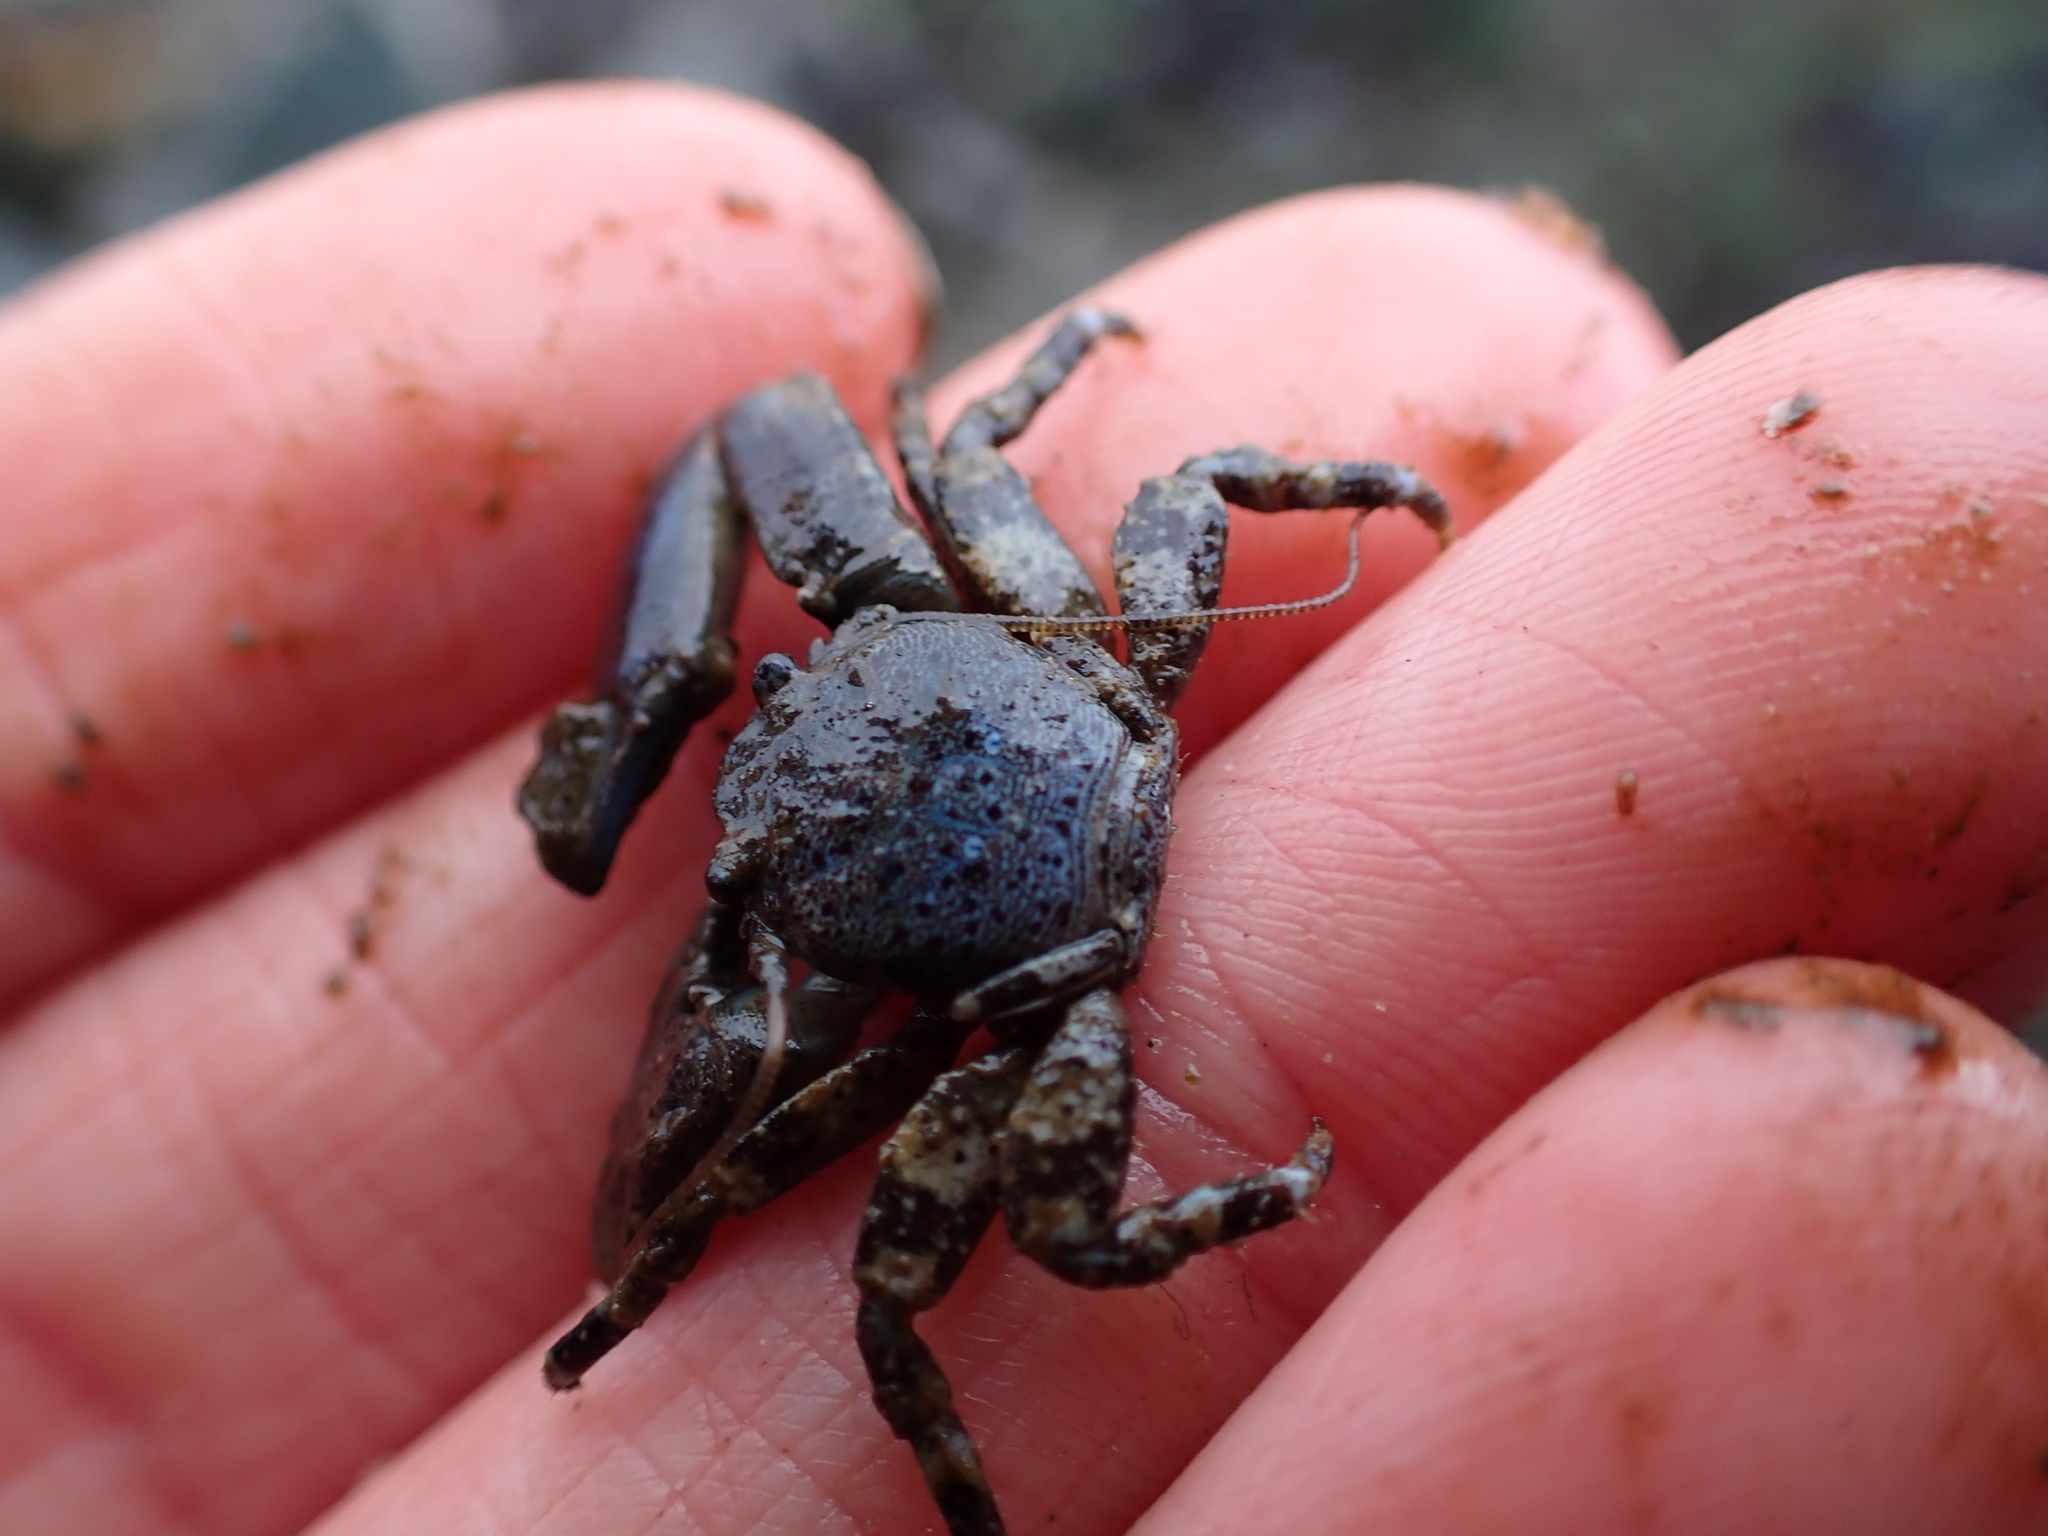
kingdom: Animalia
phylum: Arthropoda
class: Malacostraca
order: Decapoda
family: Porcellanidae
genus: Petrolisthes
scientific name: Petrolisthes eriomerus
